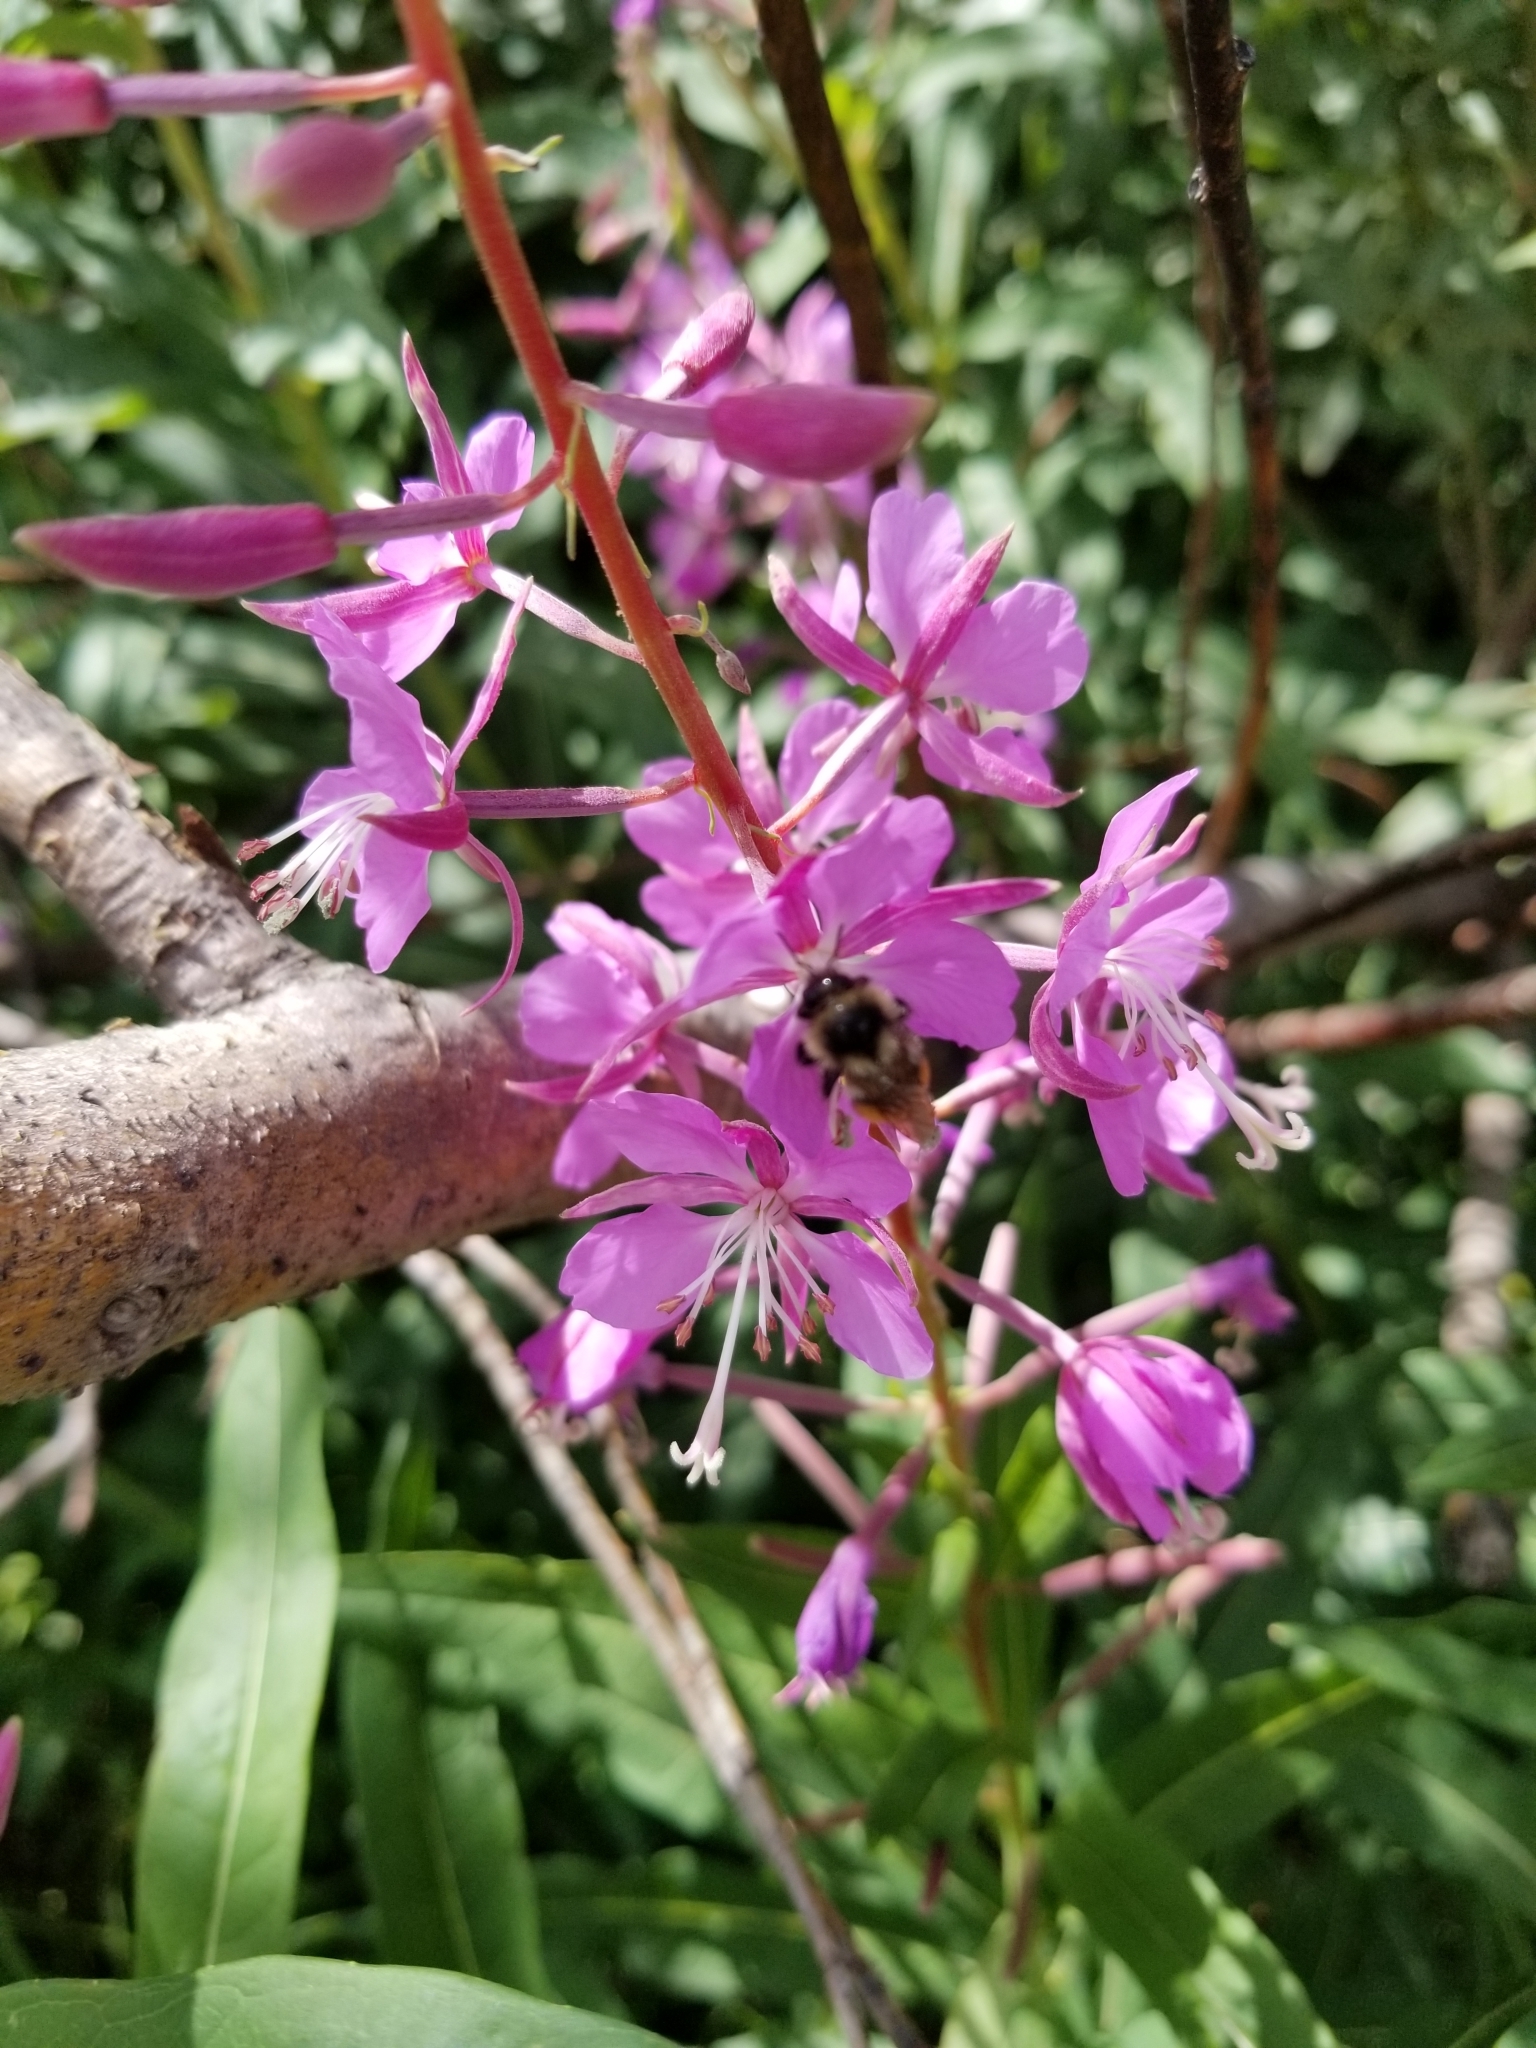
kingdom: Animalia
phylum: Arthropoda
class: Insecta
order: Hymenoptera
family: Apidae
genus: Bombus
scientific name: Bombus
